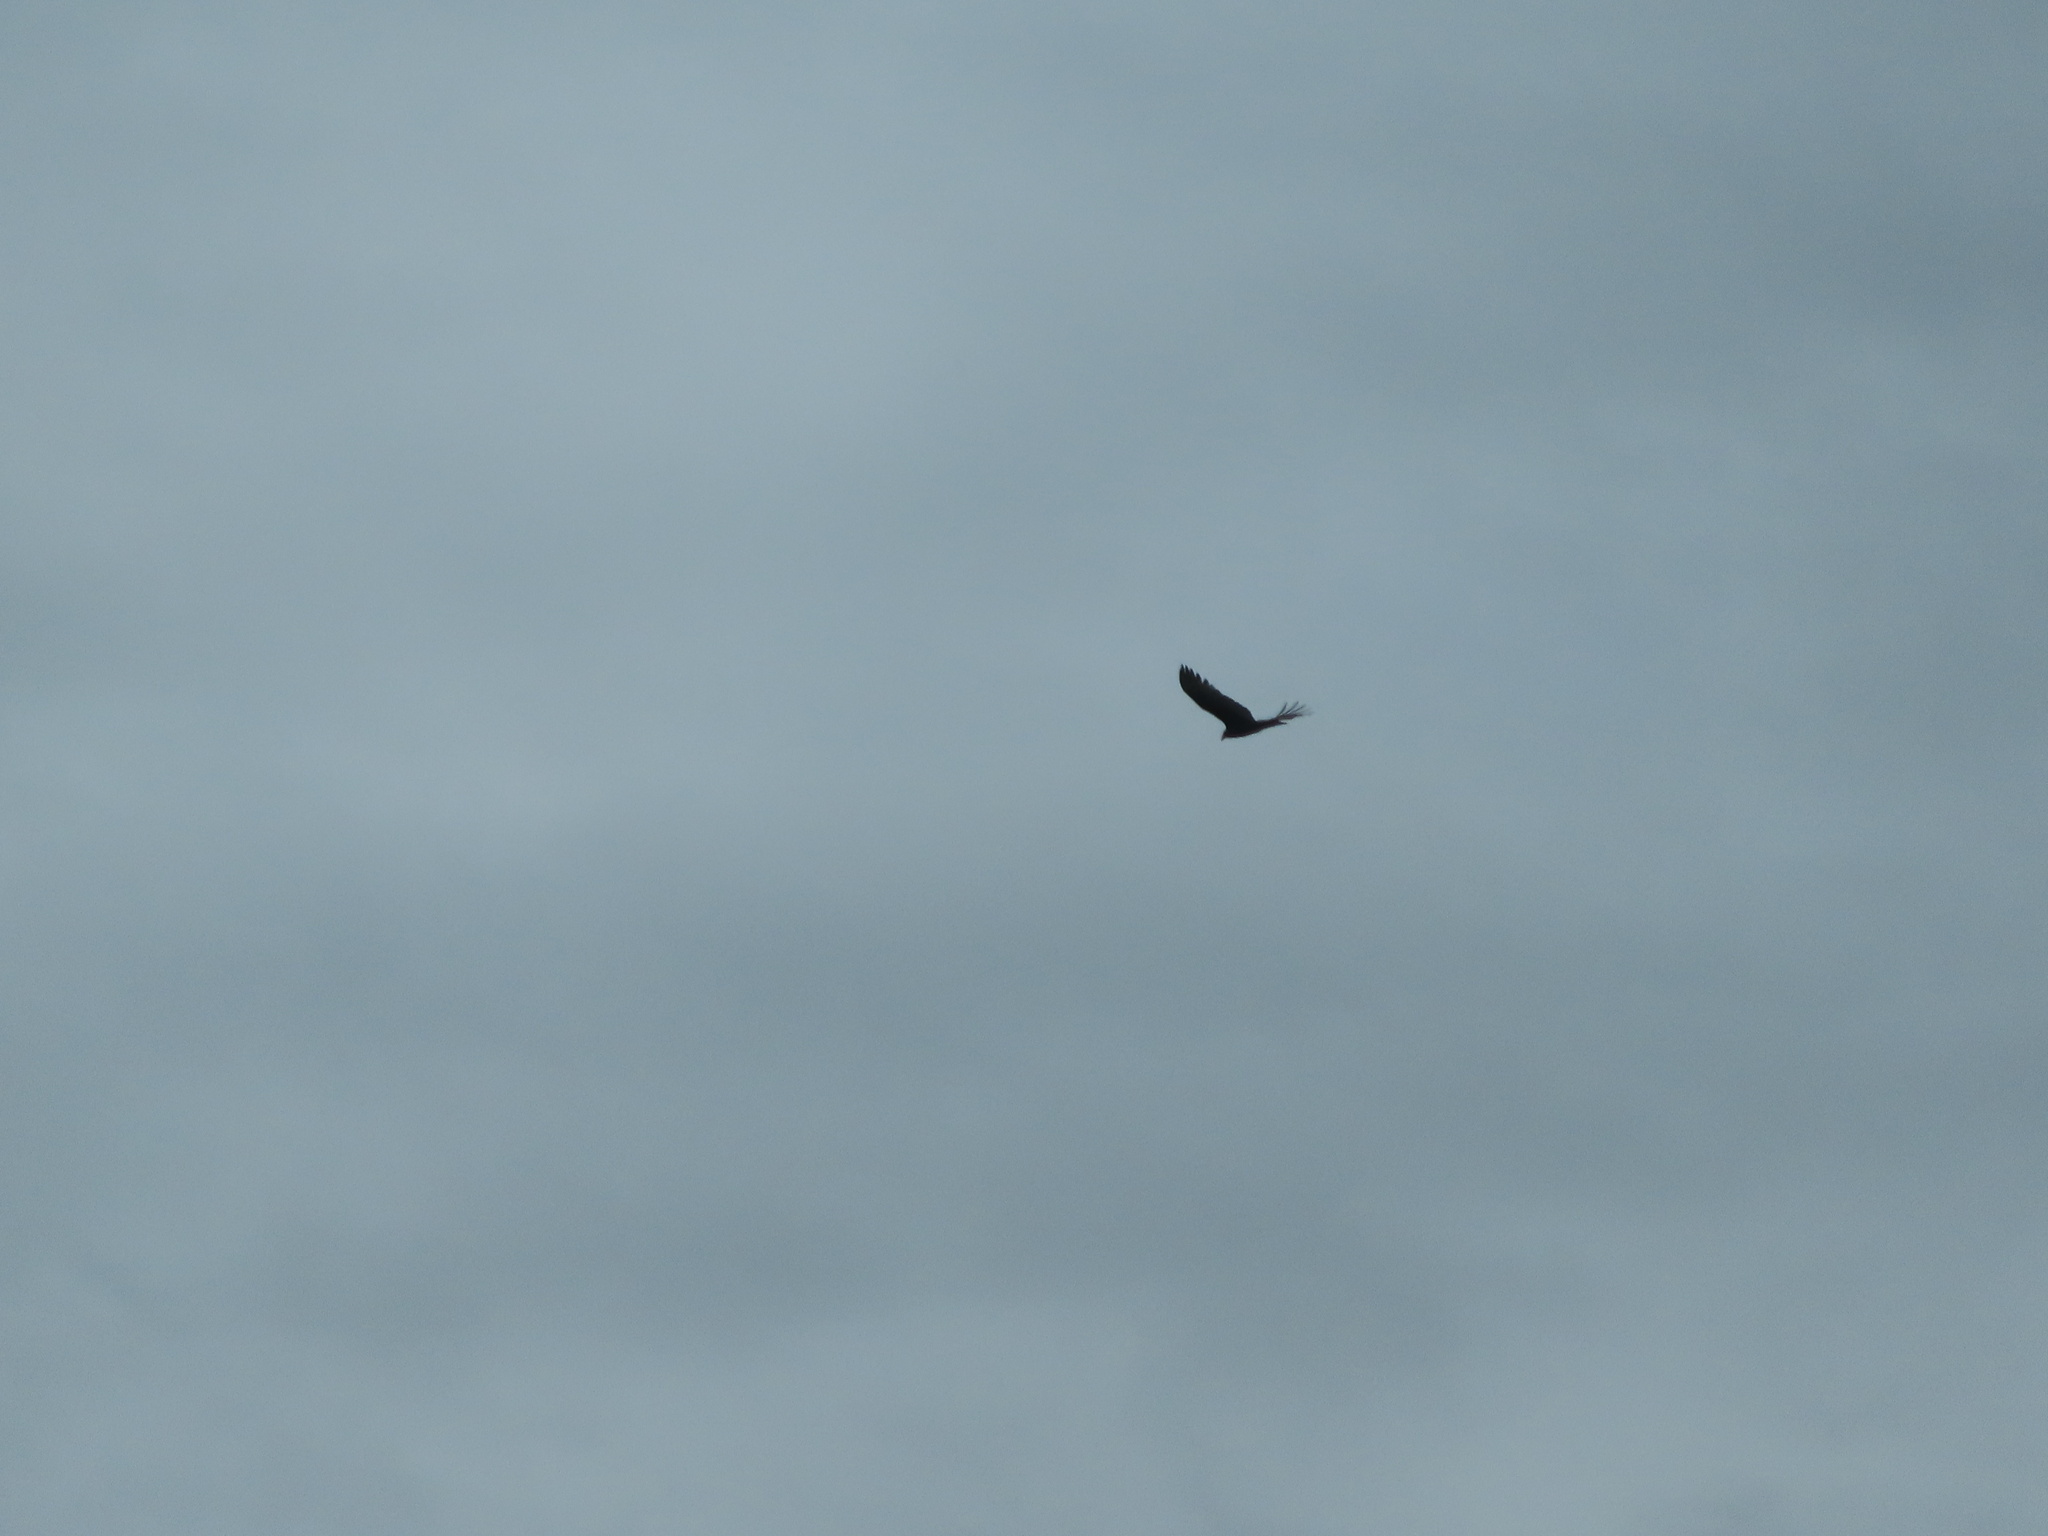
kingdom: Animalia
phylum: Chordata
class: Aves
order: Accipitriformes
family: Cathartidae
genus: Cathartes
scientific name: Cathartes aura
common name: Turkey vulture
